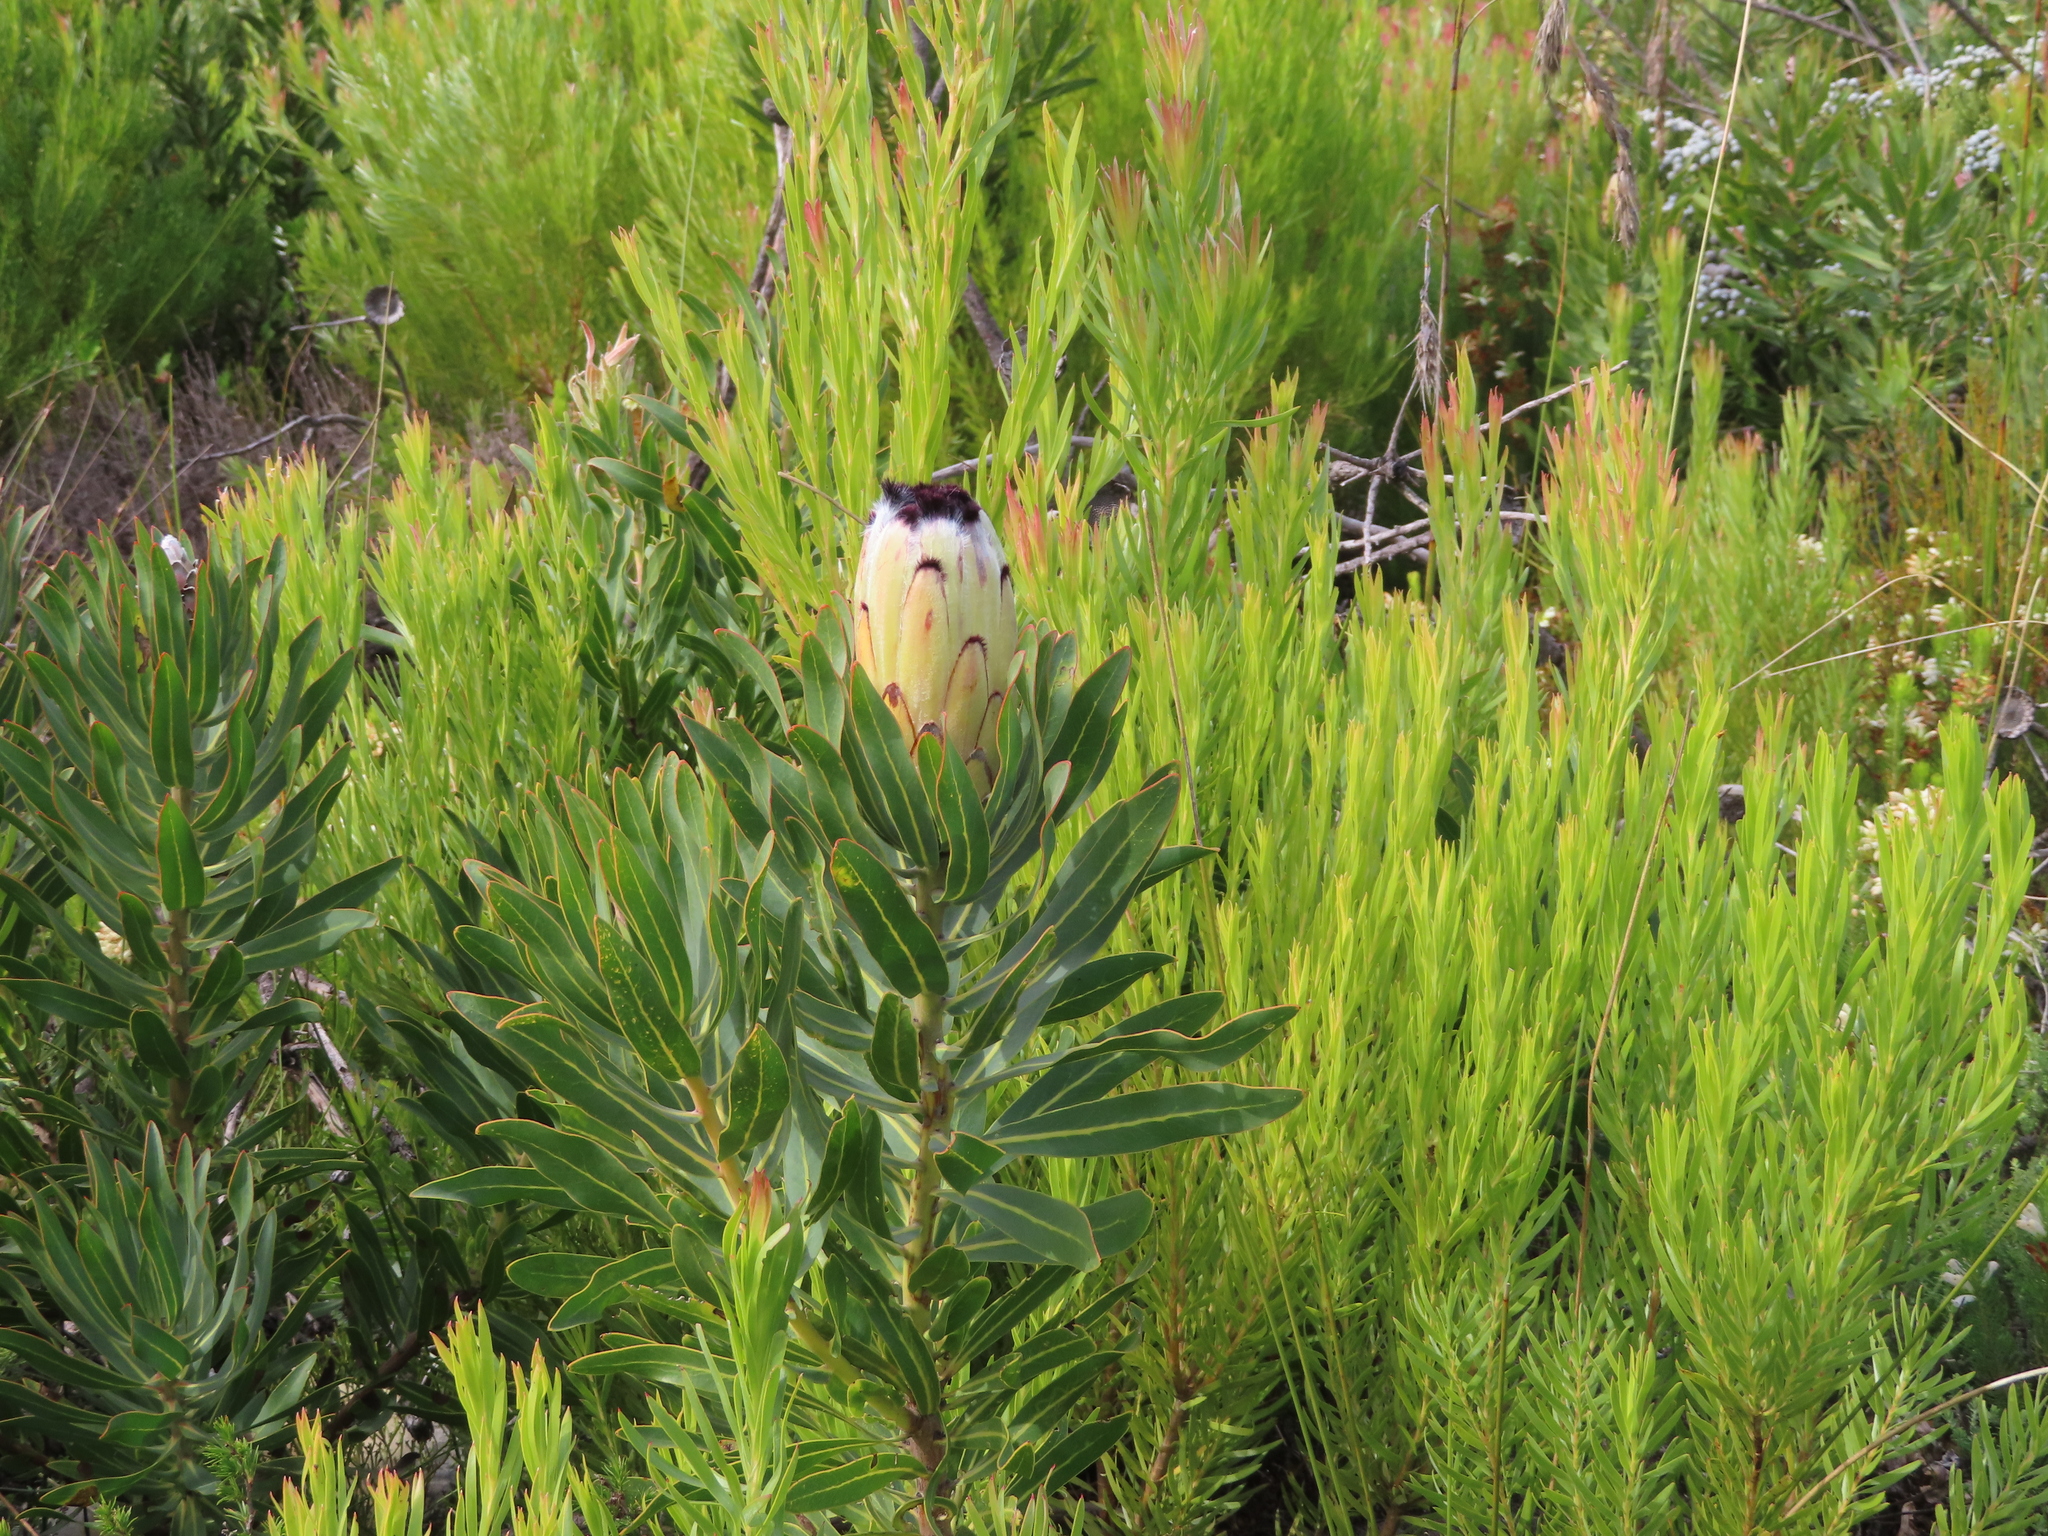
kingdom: Plantae
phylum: Tracheophyta
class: Magnoliopsida
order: Proteales
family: Proteaceae
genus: Protea
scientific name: Protea neriifolia
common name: Blue sugarbush
